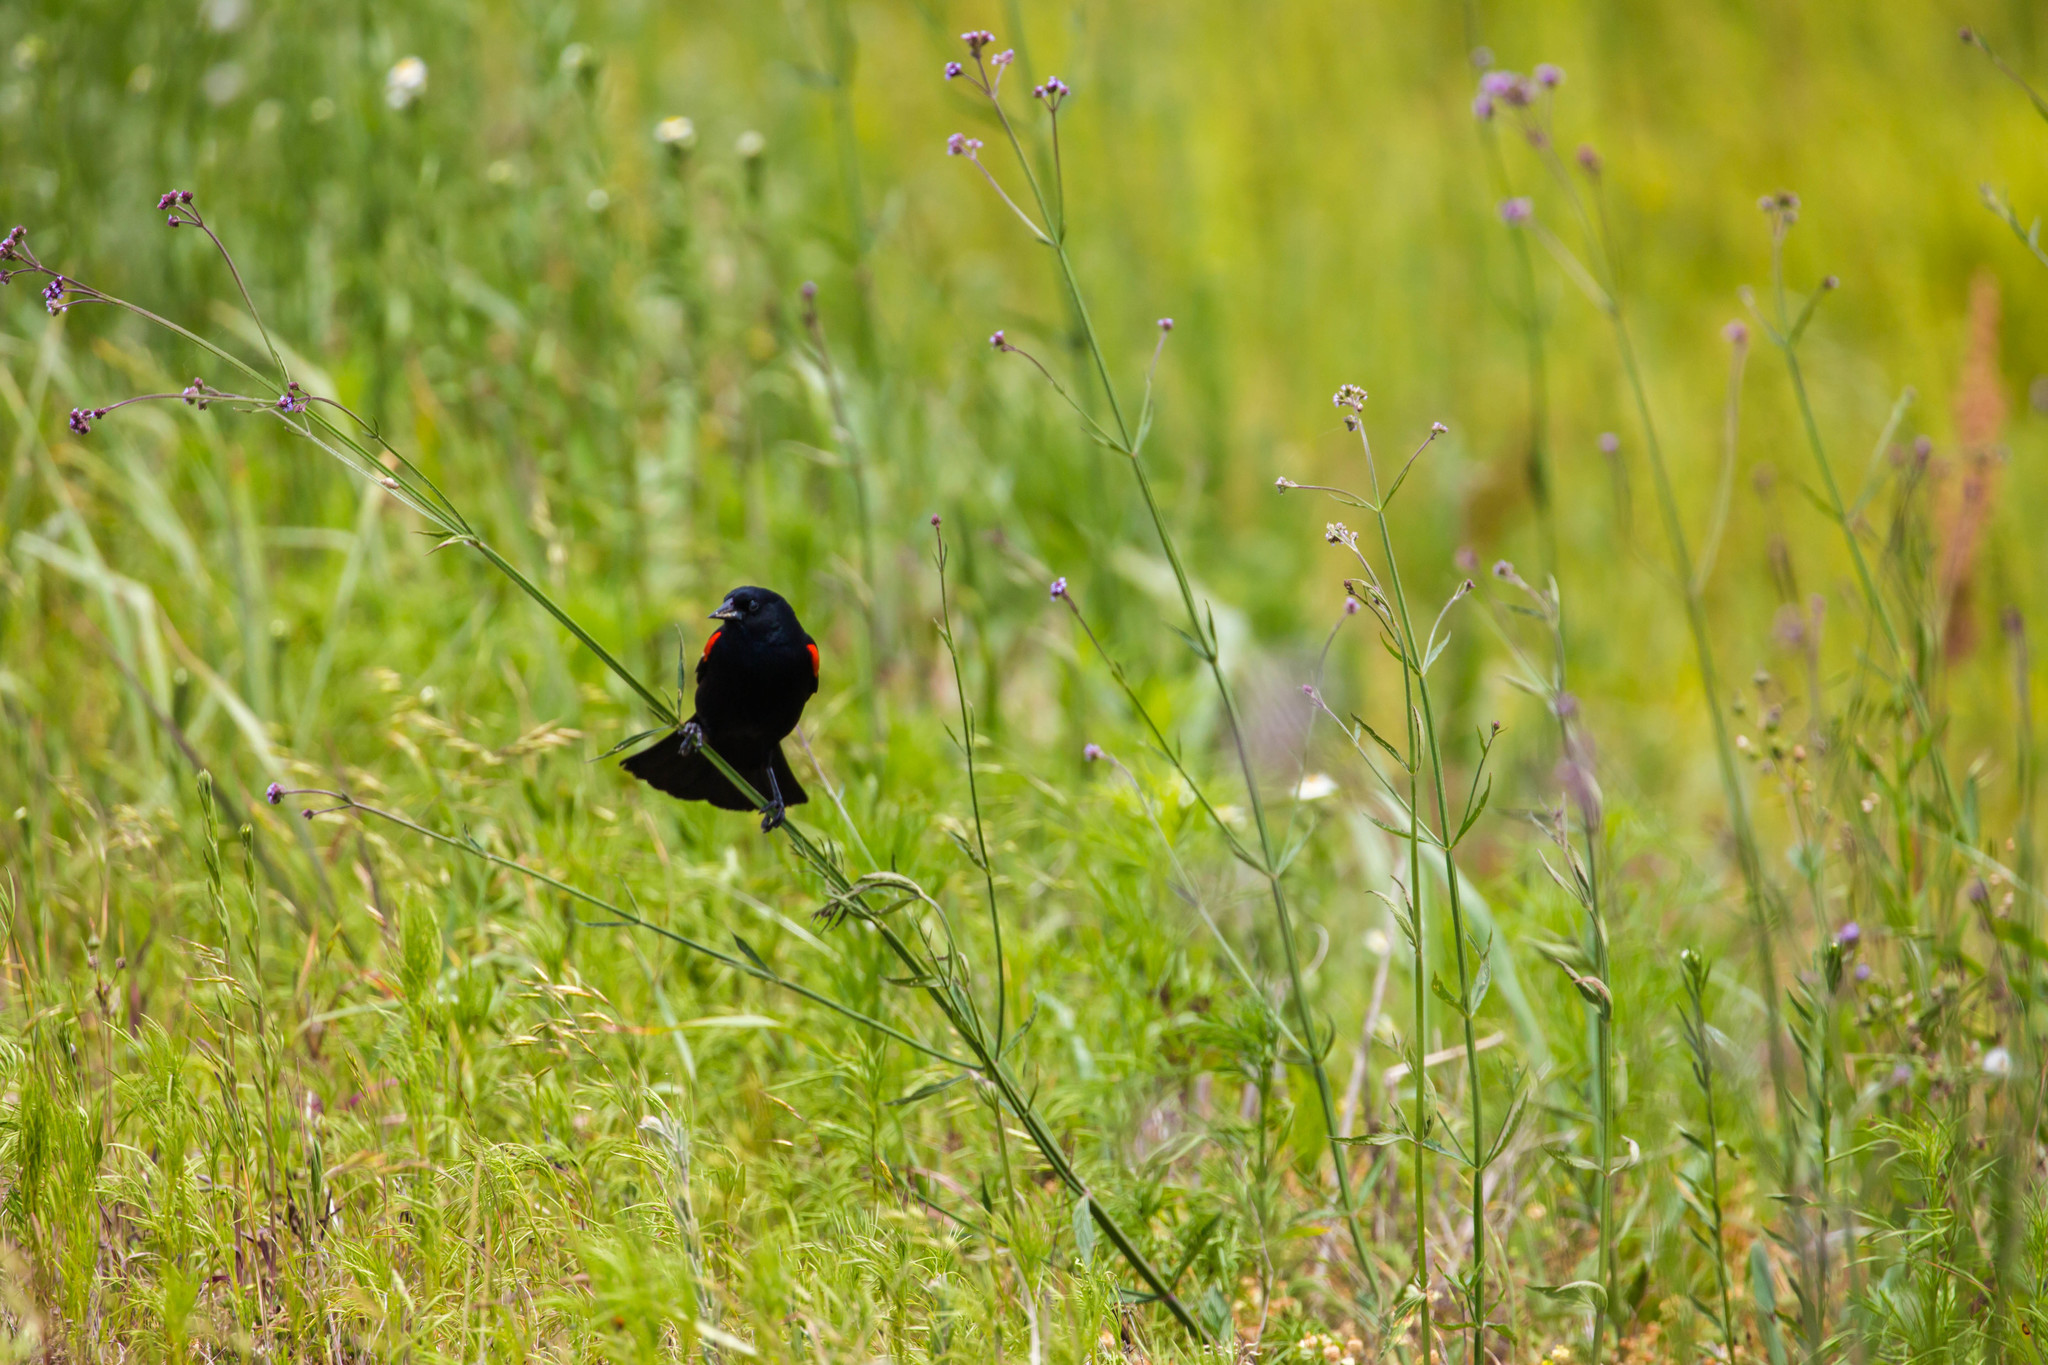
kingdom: Animalia
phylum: Chordata
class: Aves
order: Passeriformes
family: Icteridae
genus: Agelaius
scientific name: Agelaius phoeniceus
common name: Red-winged blackbird
